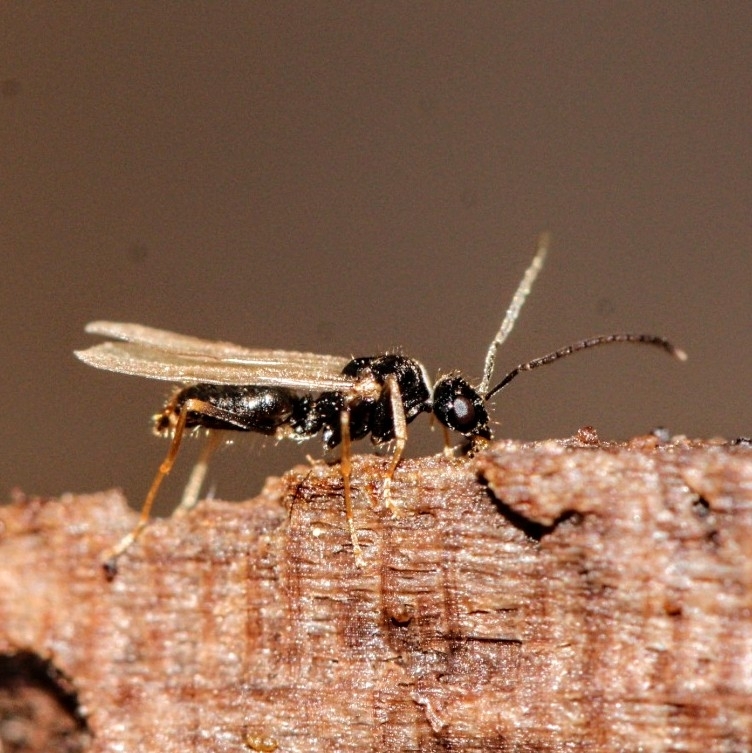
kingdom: Animalia
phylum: Arthropoda
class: Insecta
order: Hymenoptera
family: Formicidae
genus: Prenolepis
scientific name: Prenolepis imparis
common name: Small honey ant
